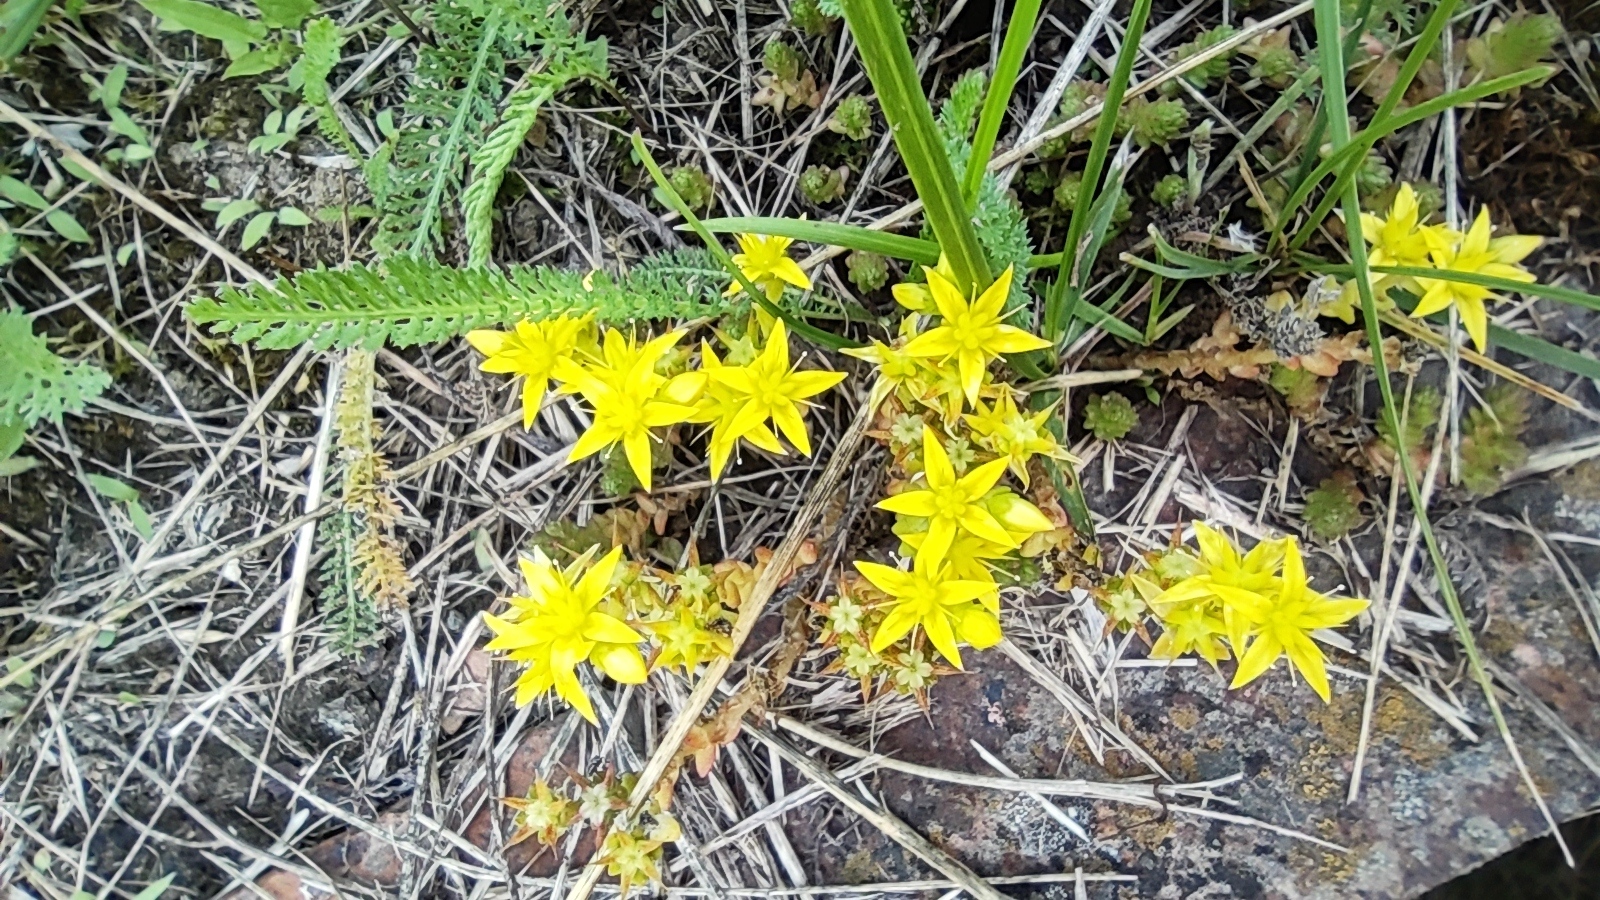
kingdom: Plantae
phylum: Tracheophyta
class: Magnoliopsida
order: Saxifragales
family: Crassulaceae
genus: Sedum
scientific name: Sedum acre
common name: Biting stonecrop
